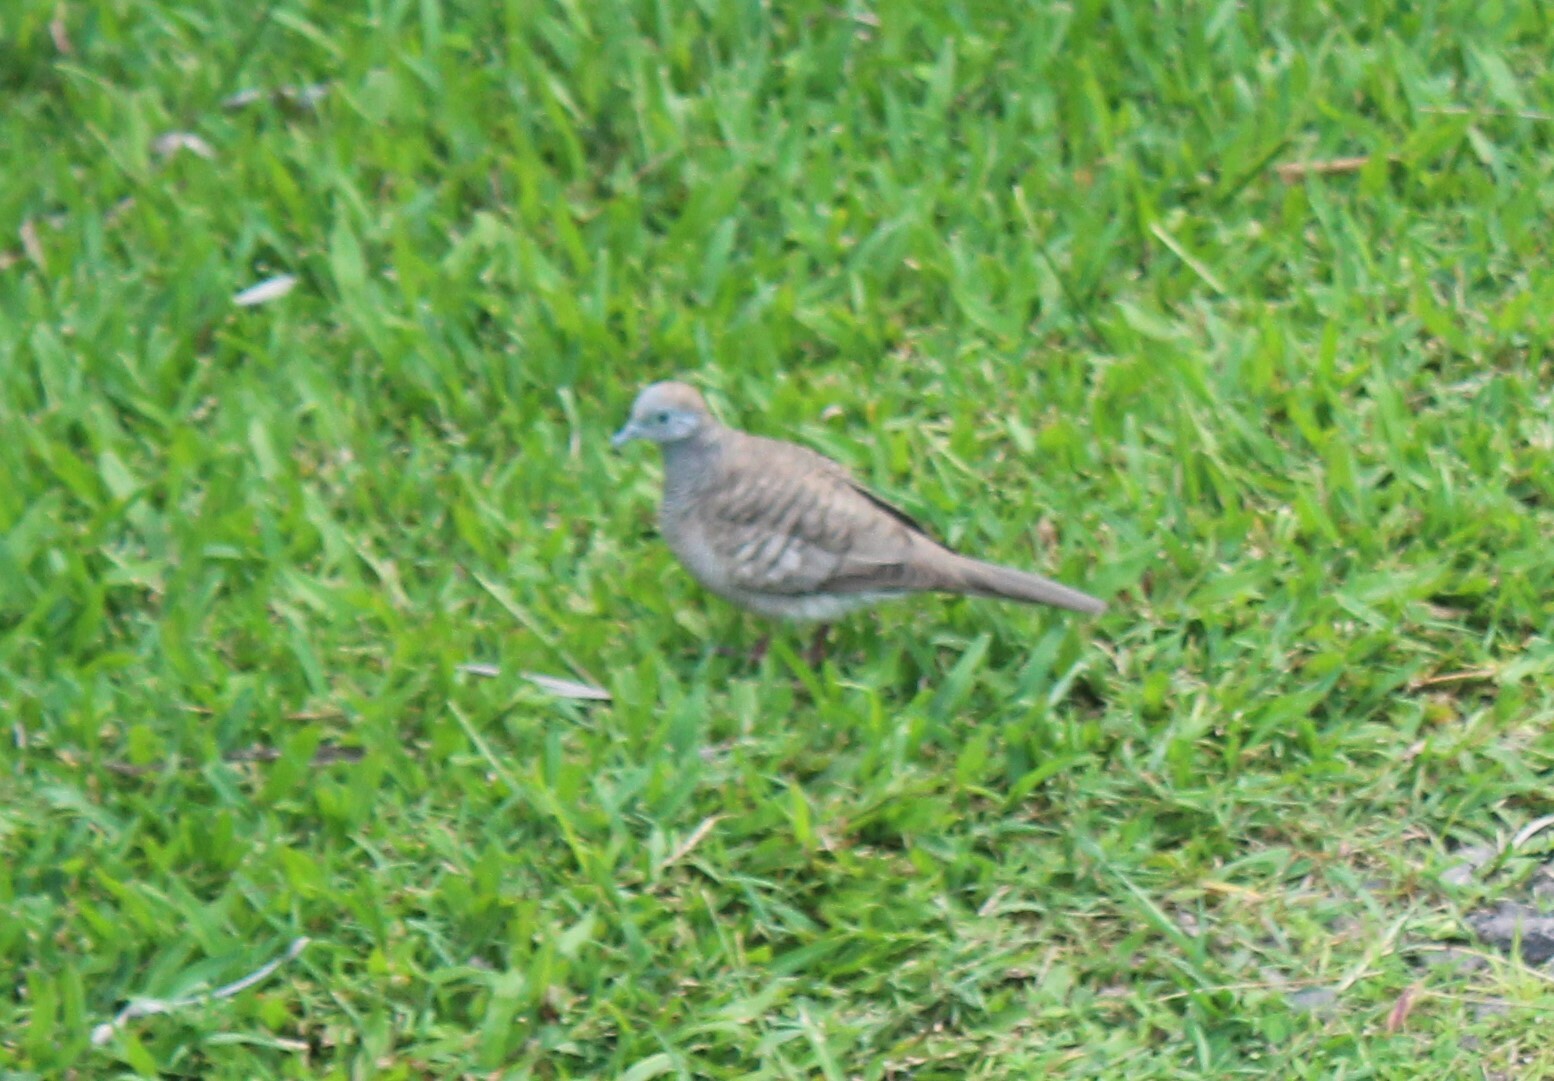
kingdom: Animalia
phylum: Chordata
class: Aves
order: Columbiformes
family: Columbidae
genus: Geopelia
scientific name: Geopelia striata
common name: Zebra dove
